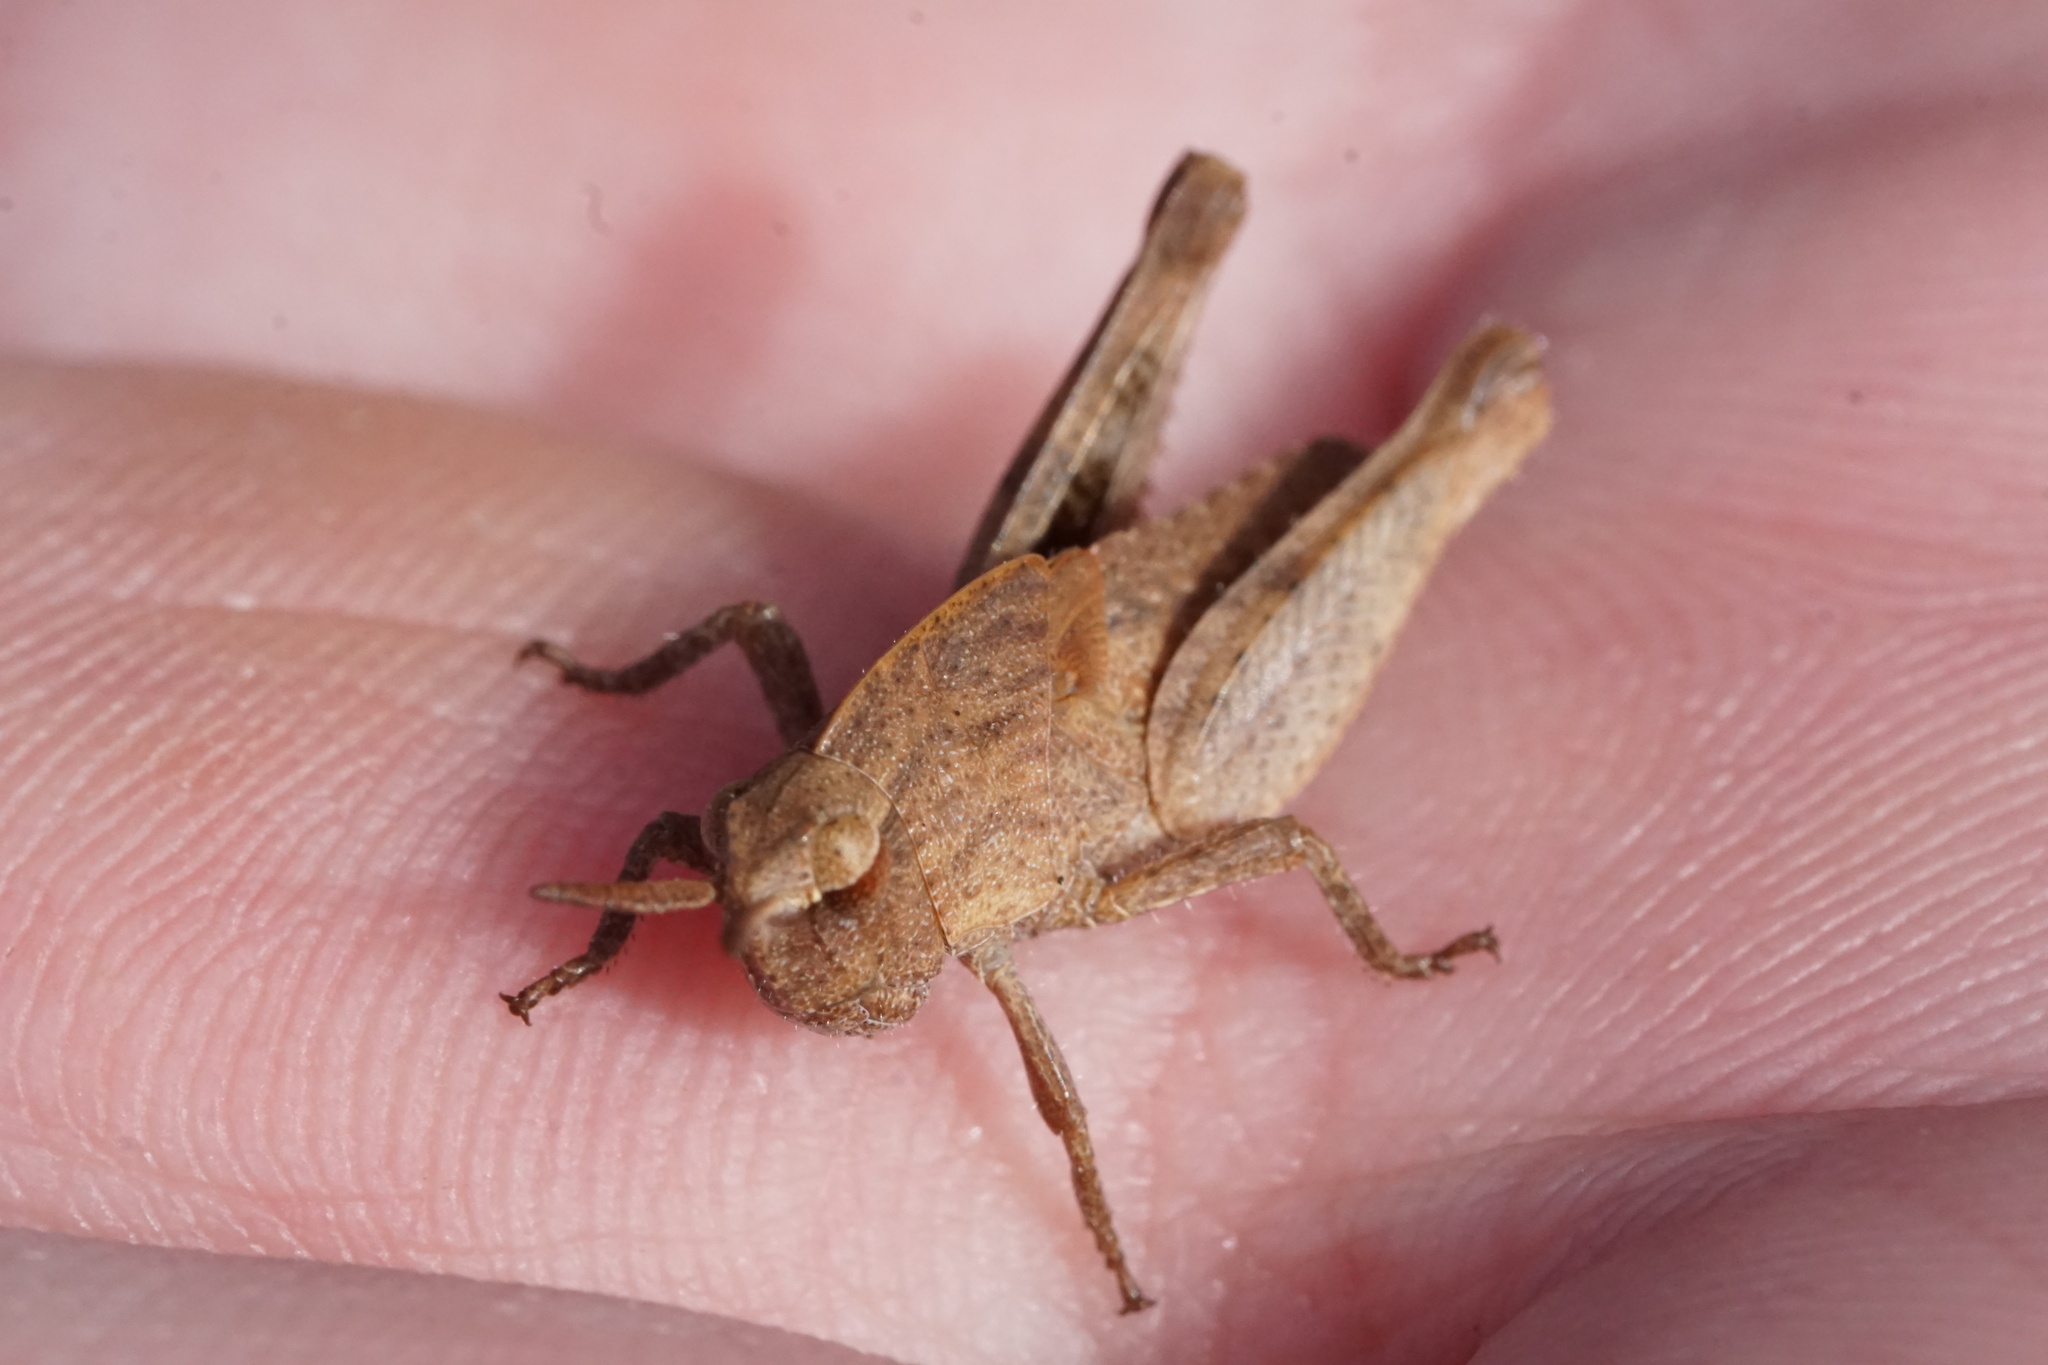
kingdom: Animalia
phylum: Arthropoda
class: Insecta
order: Orthoptera
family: Acrididae
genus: Chortophaga
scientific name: Chortophaga viridifasciata
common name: Green-striped grasshopper
